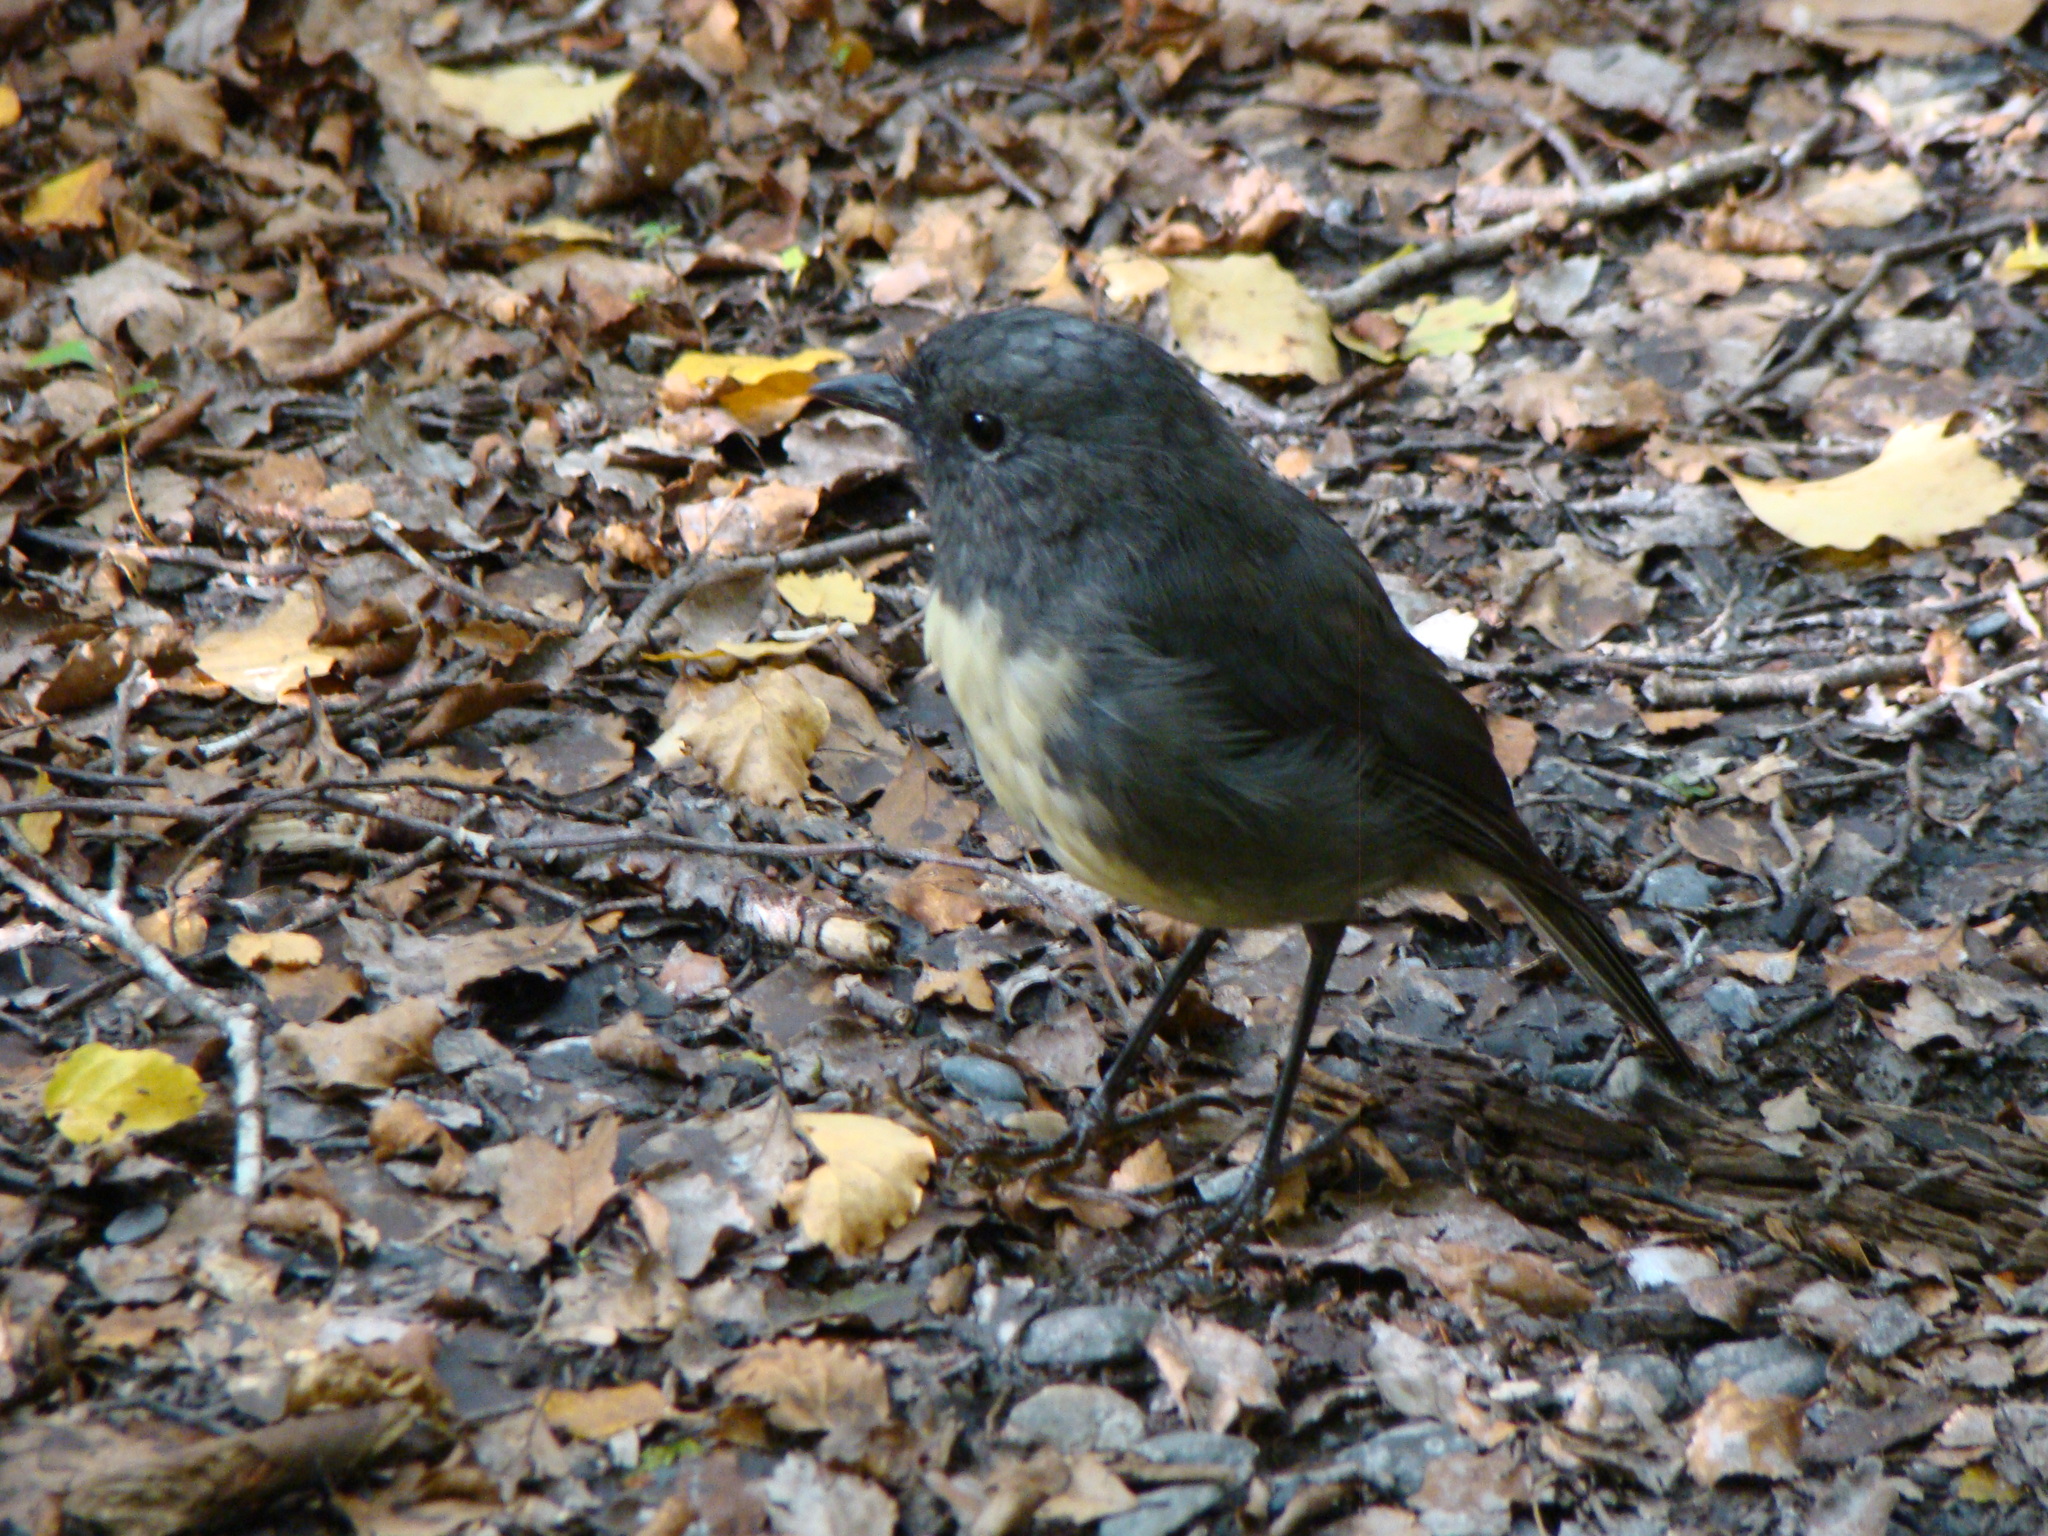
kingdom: Animalia
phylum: Chordata
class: Aves
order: Passeriformes
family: Petroicidae
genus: Petroica
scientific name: Petroica australis
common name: New zealand robin
